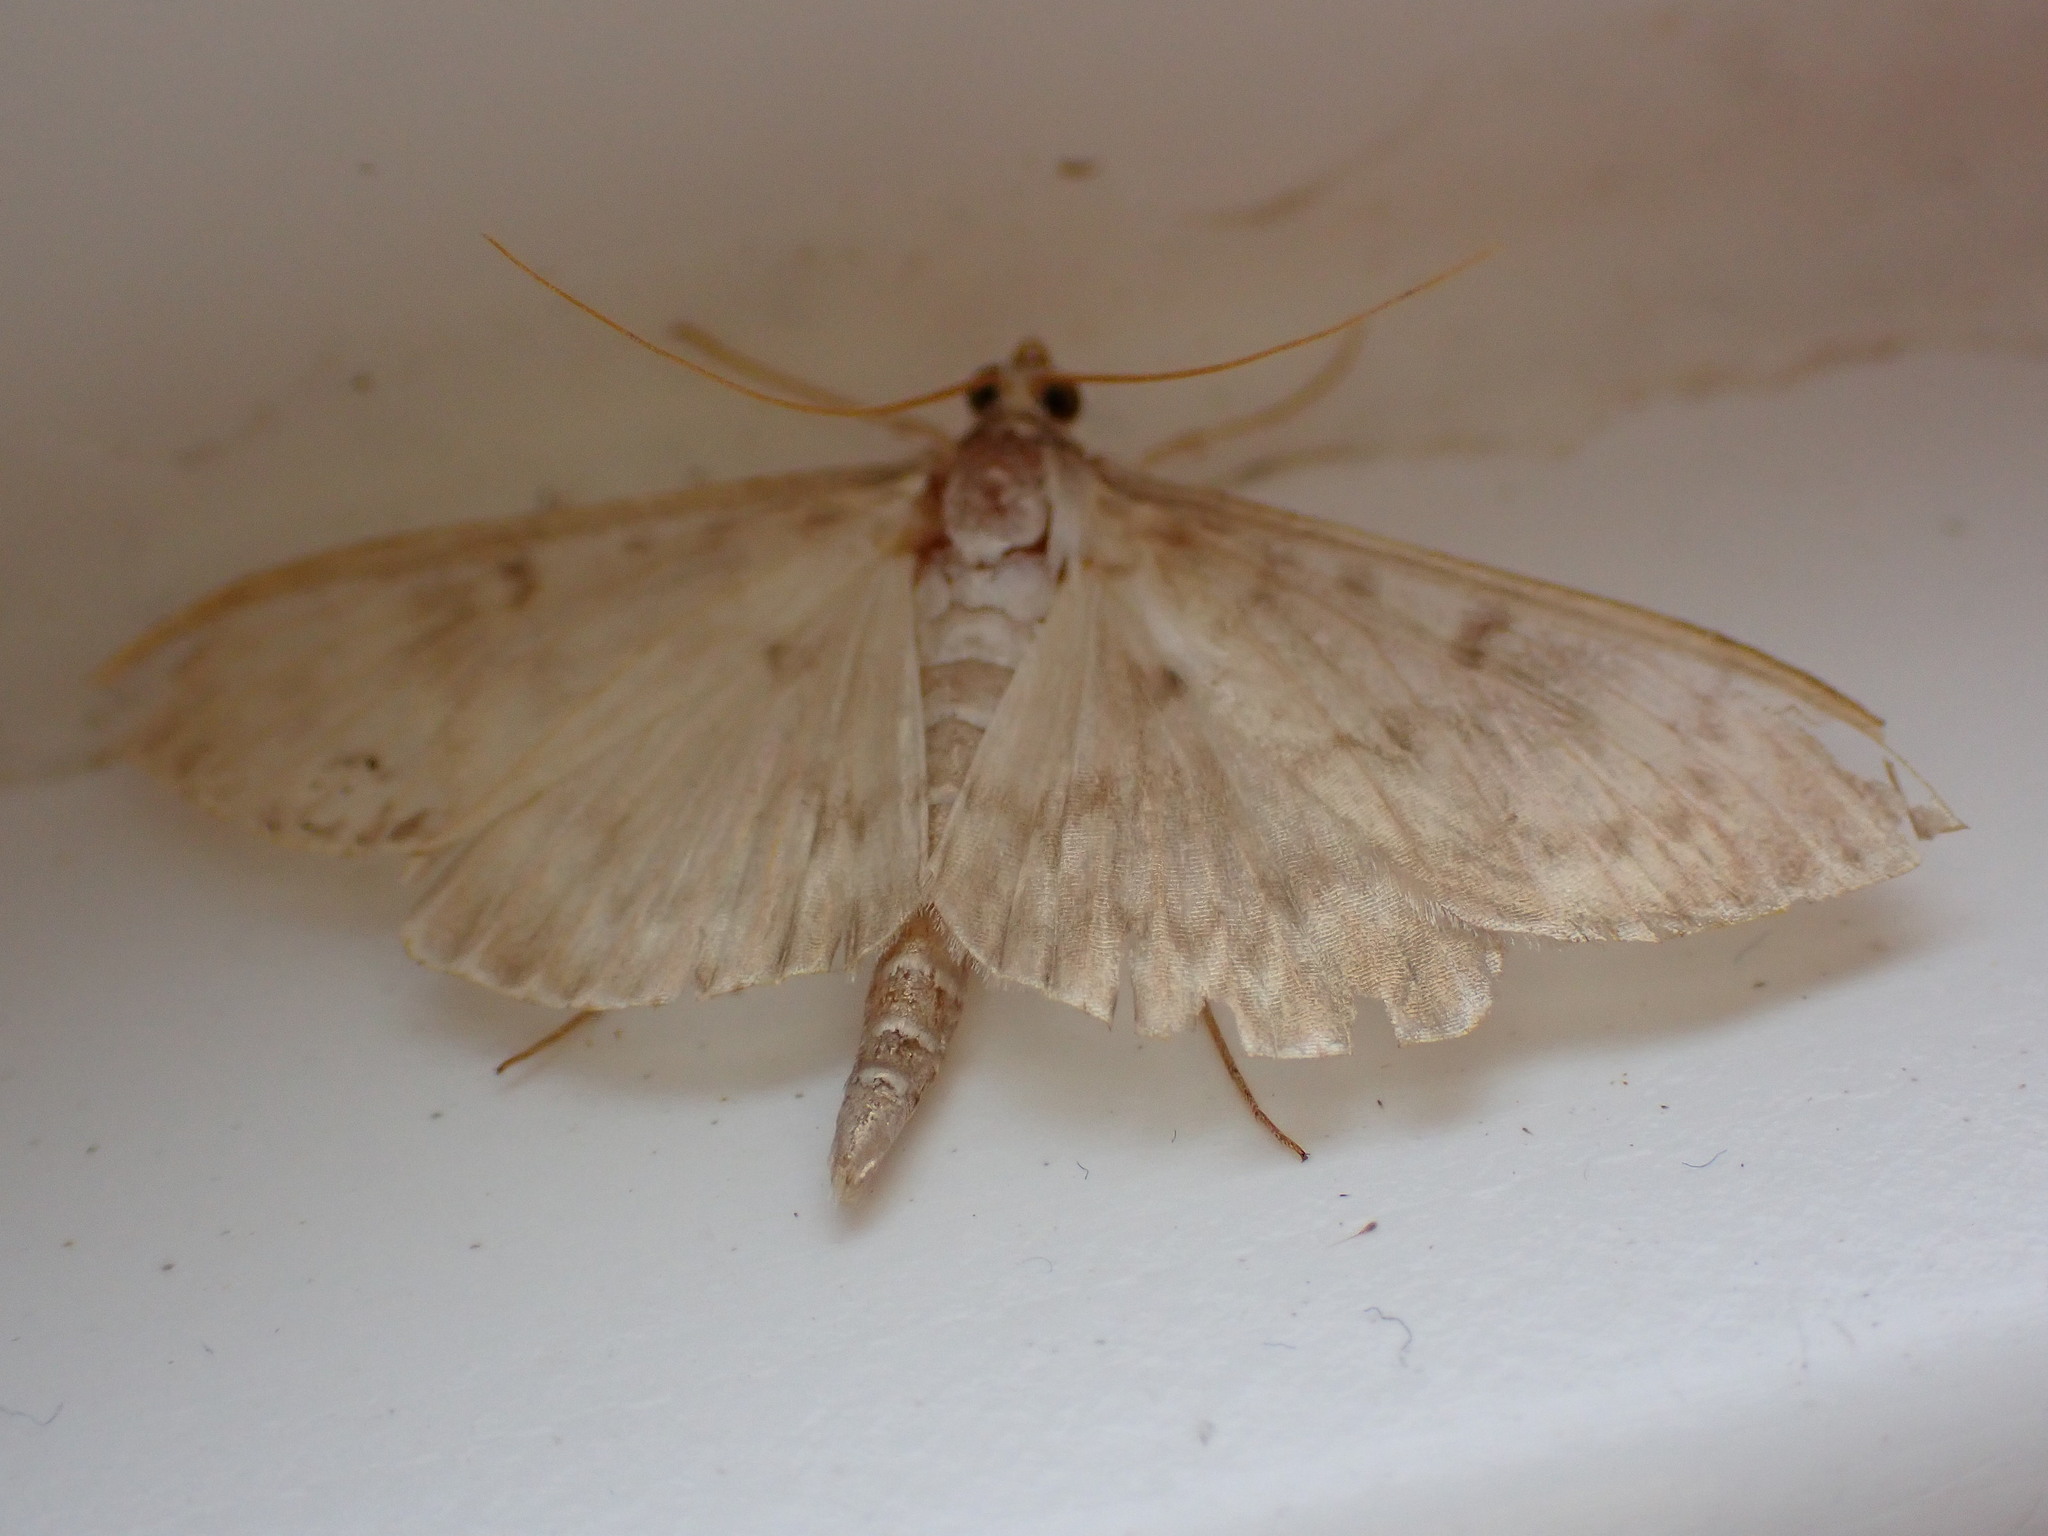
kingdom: Animalia
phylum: Arthropoda
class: Insecta
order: Lepidoptera
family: Crambidae
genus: Patania
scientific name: Patania ruralis
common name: Mother of pearl
